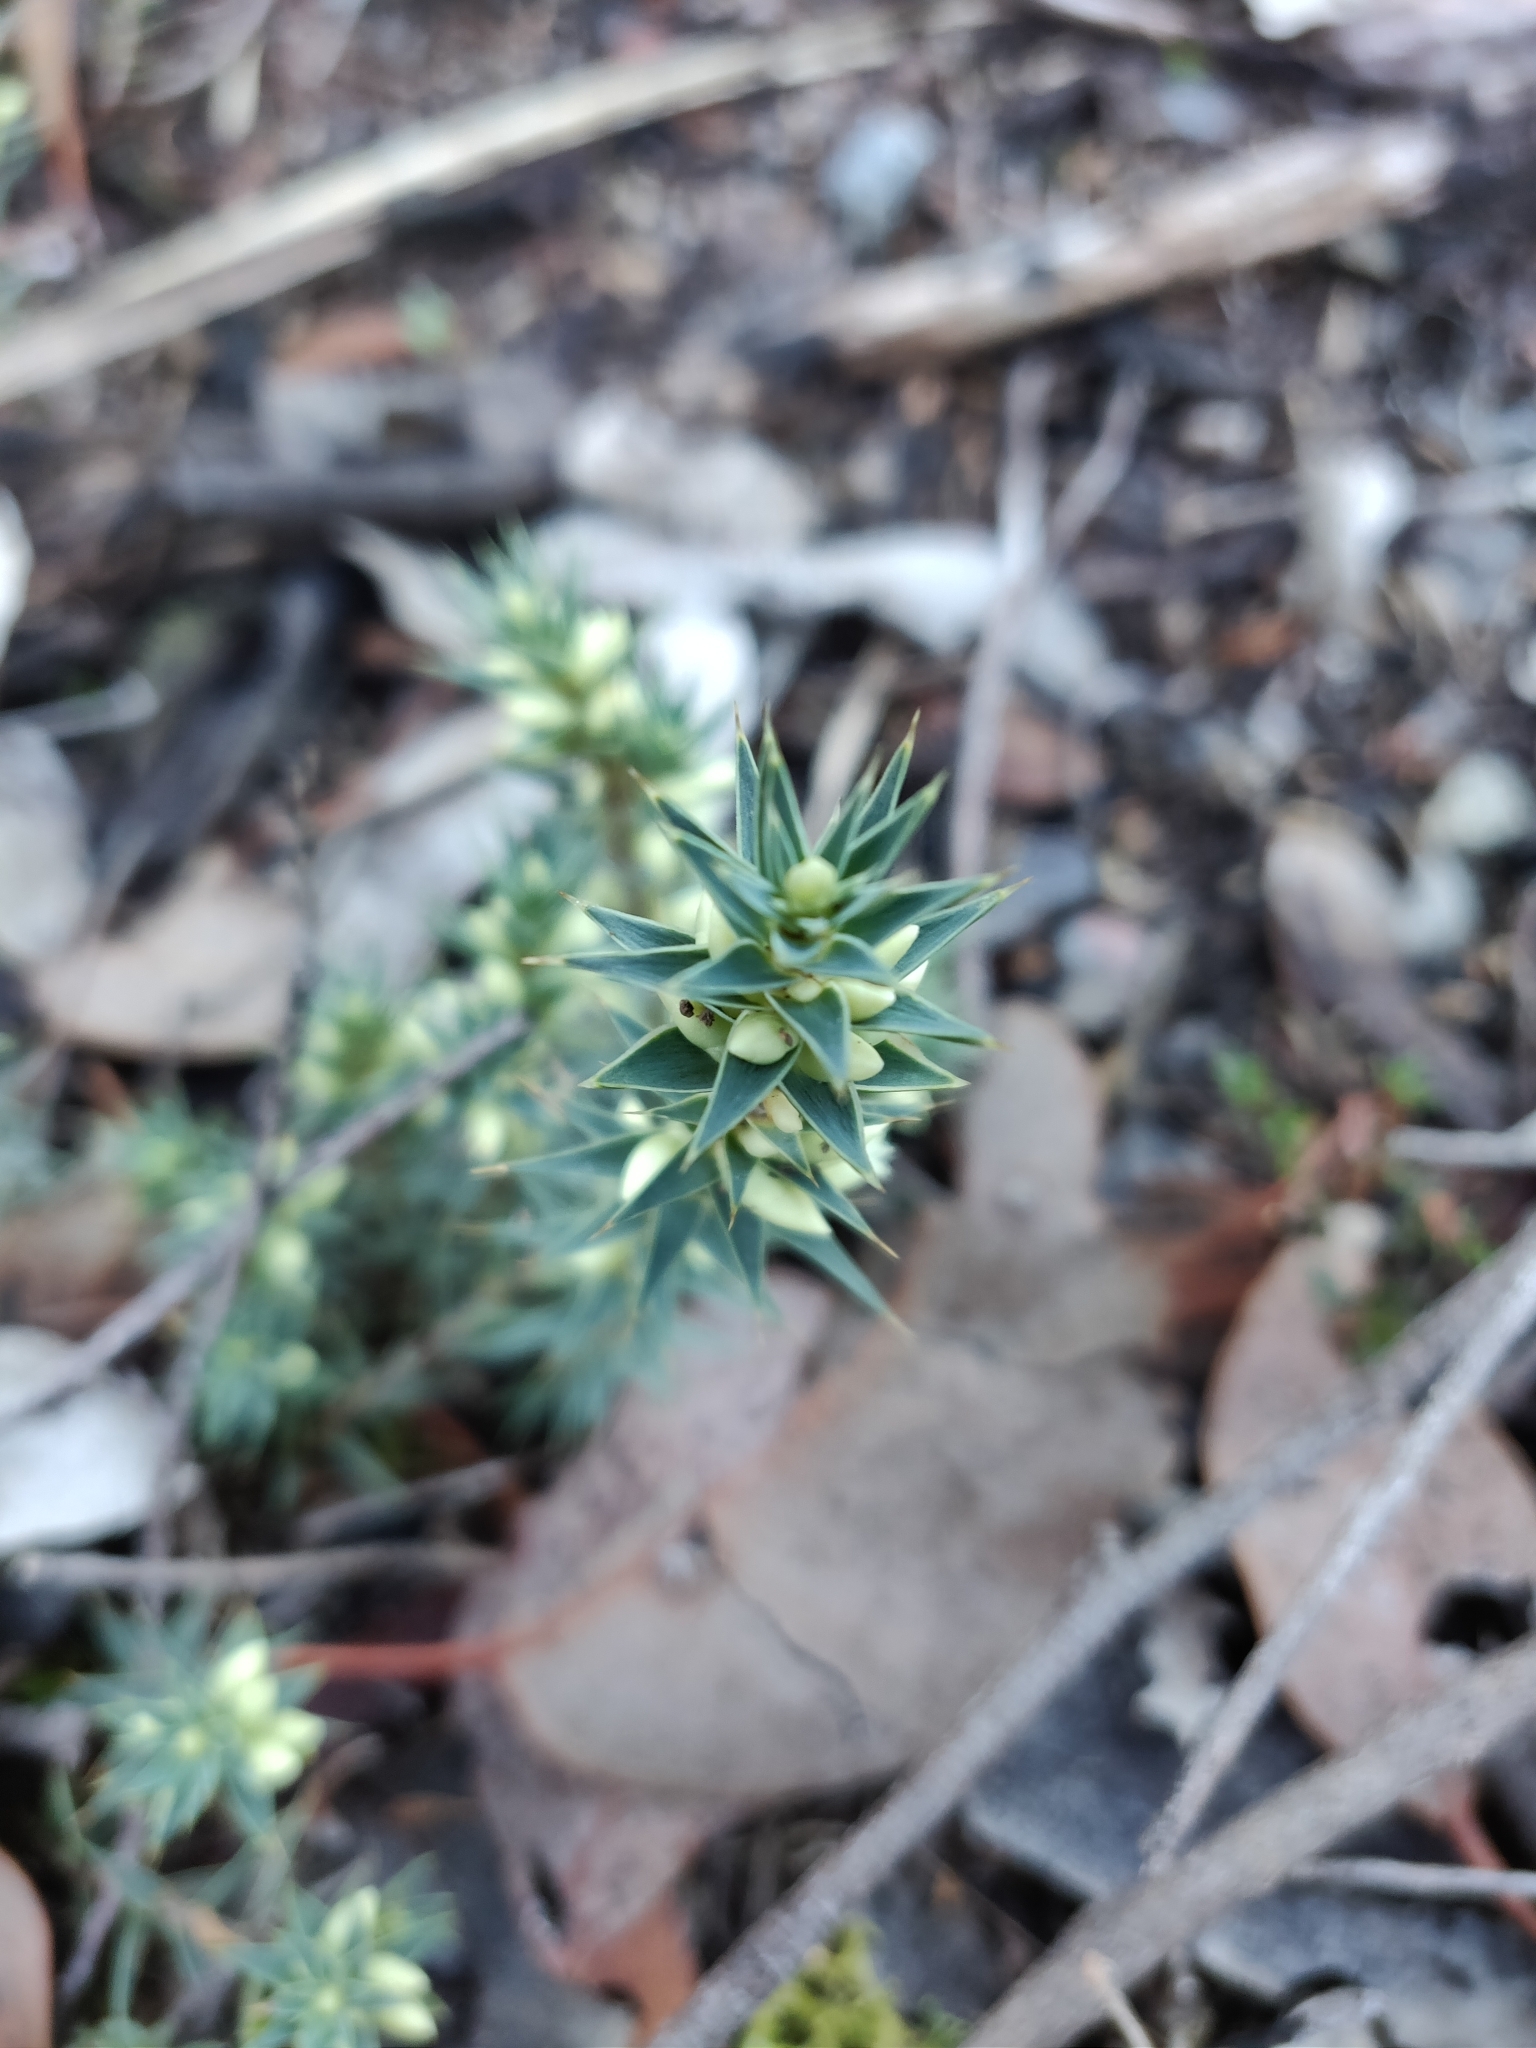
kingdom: Plantae
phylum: Tracheophyta
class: Magnoliopsida
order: Ericales
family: Ericaceae
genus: Melichrus
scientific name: Melichrus urceolatus
